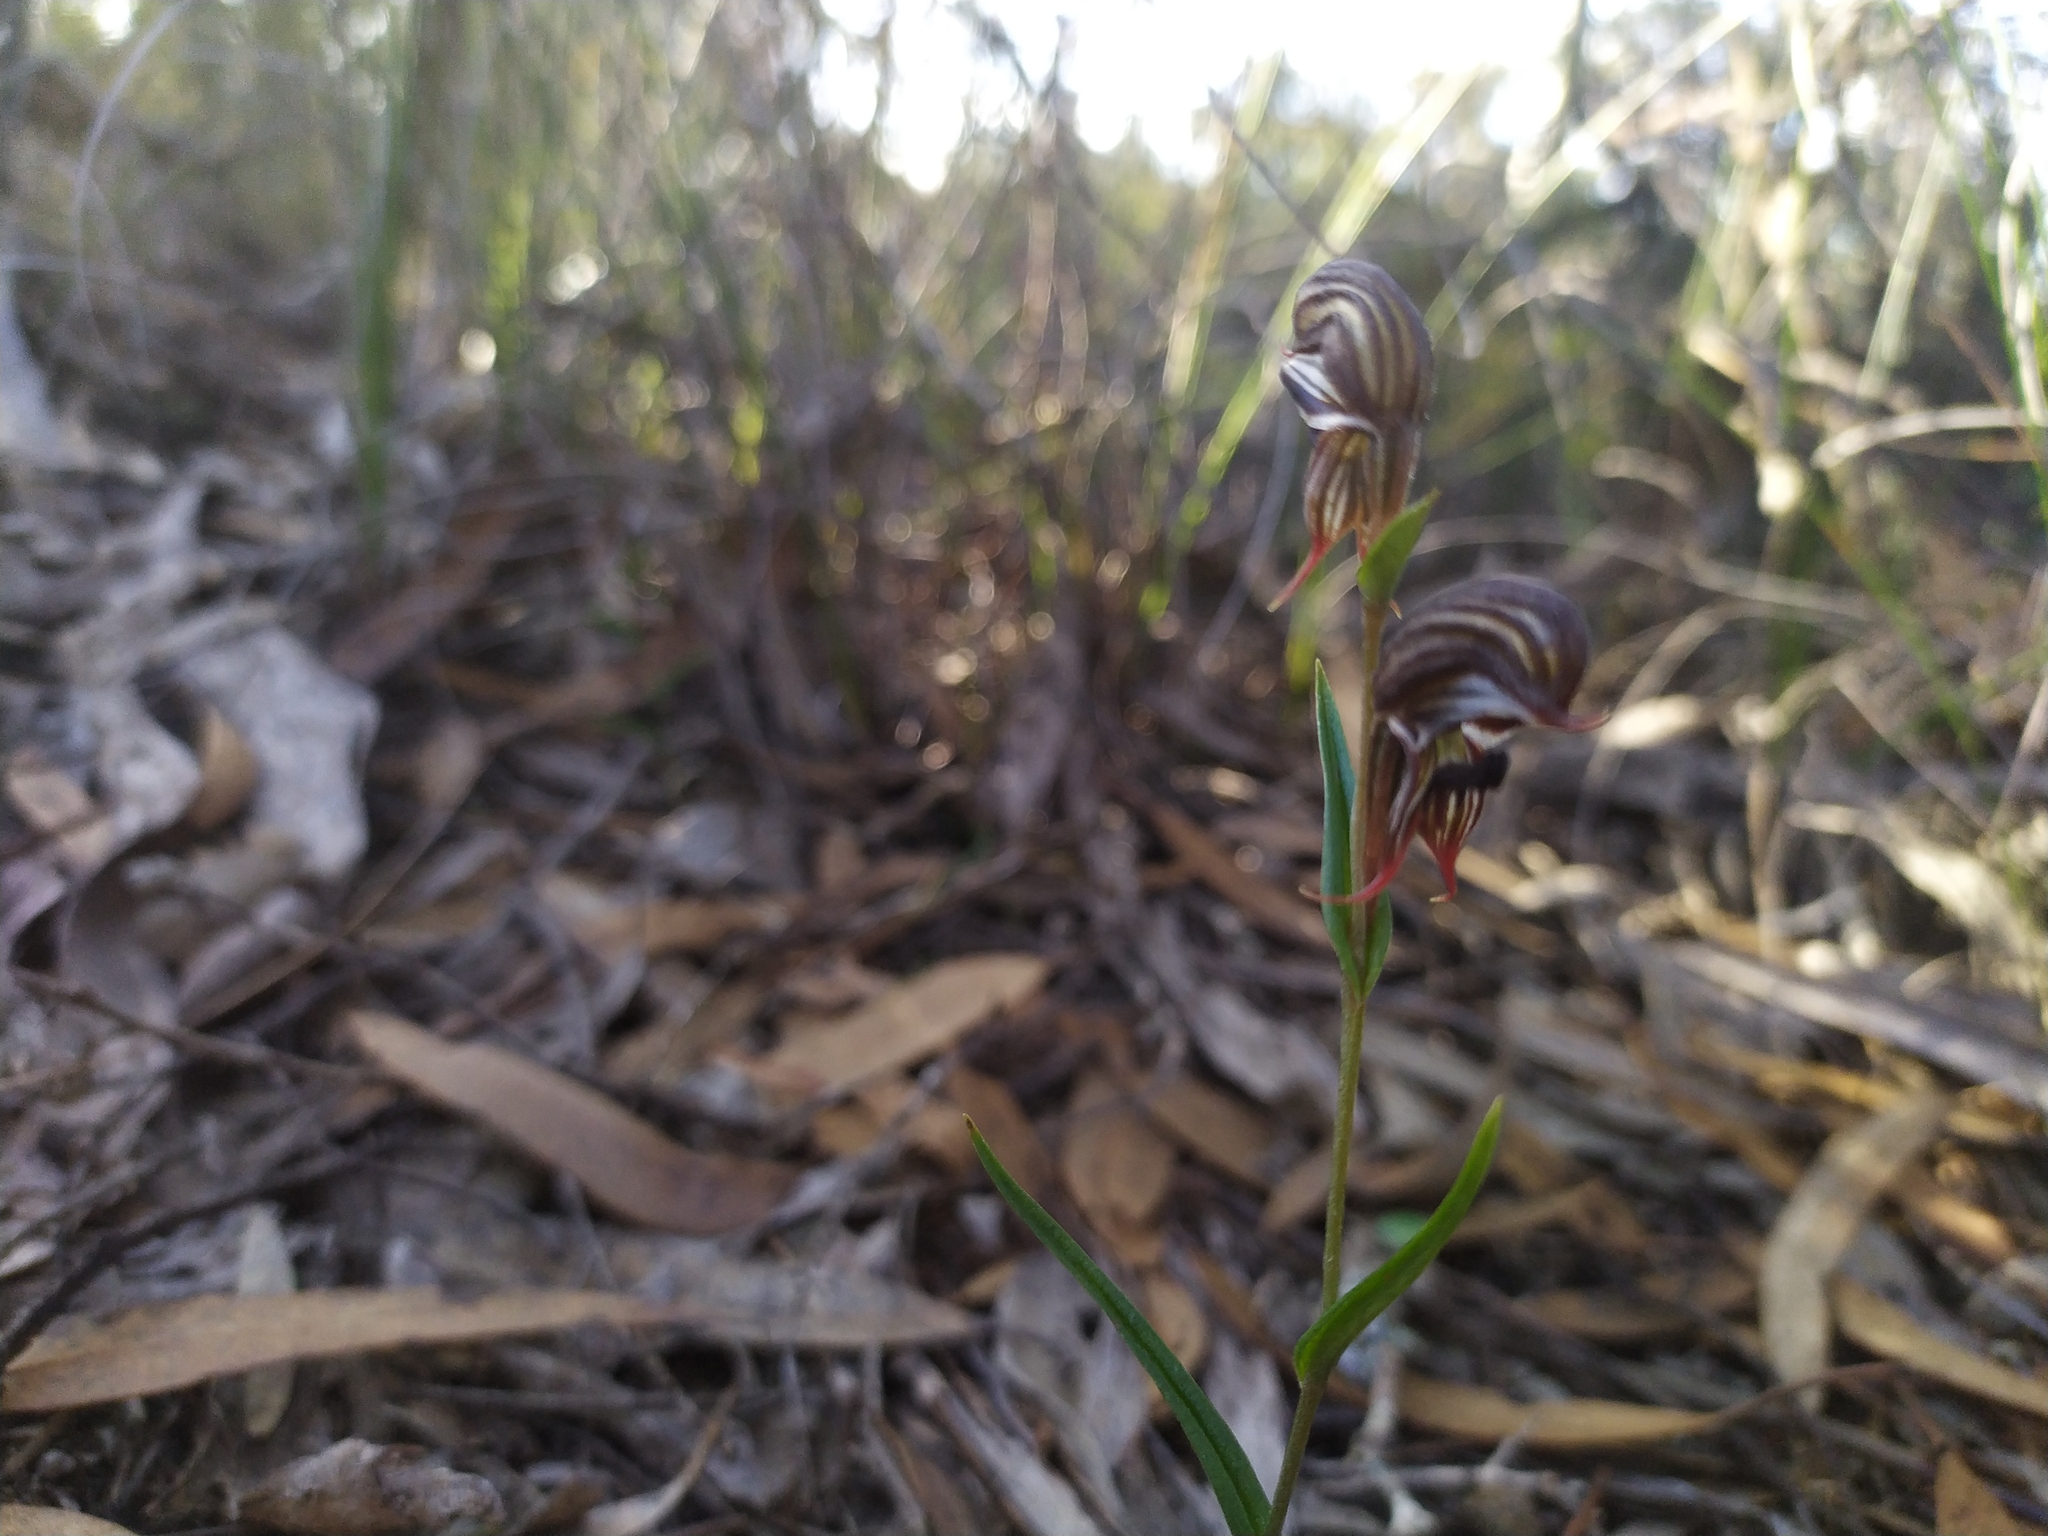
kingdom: Plantae
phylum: Tracheophyta
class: Liliopsida
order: Asparagales
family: Orchidaceae
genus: Pterostylis
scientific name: Pterostylis sargentii
